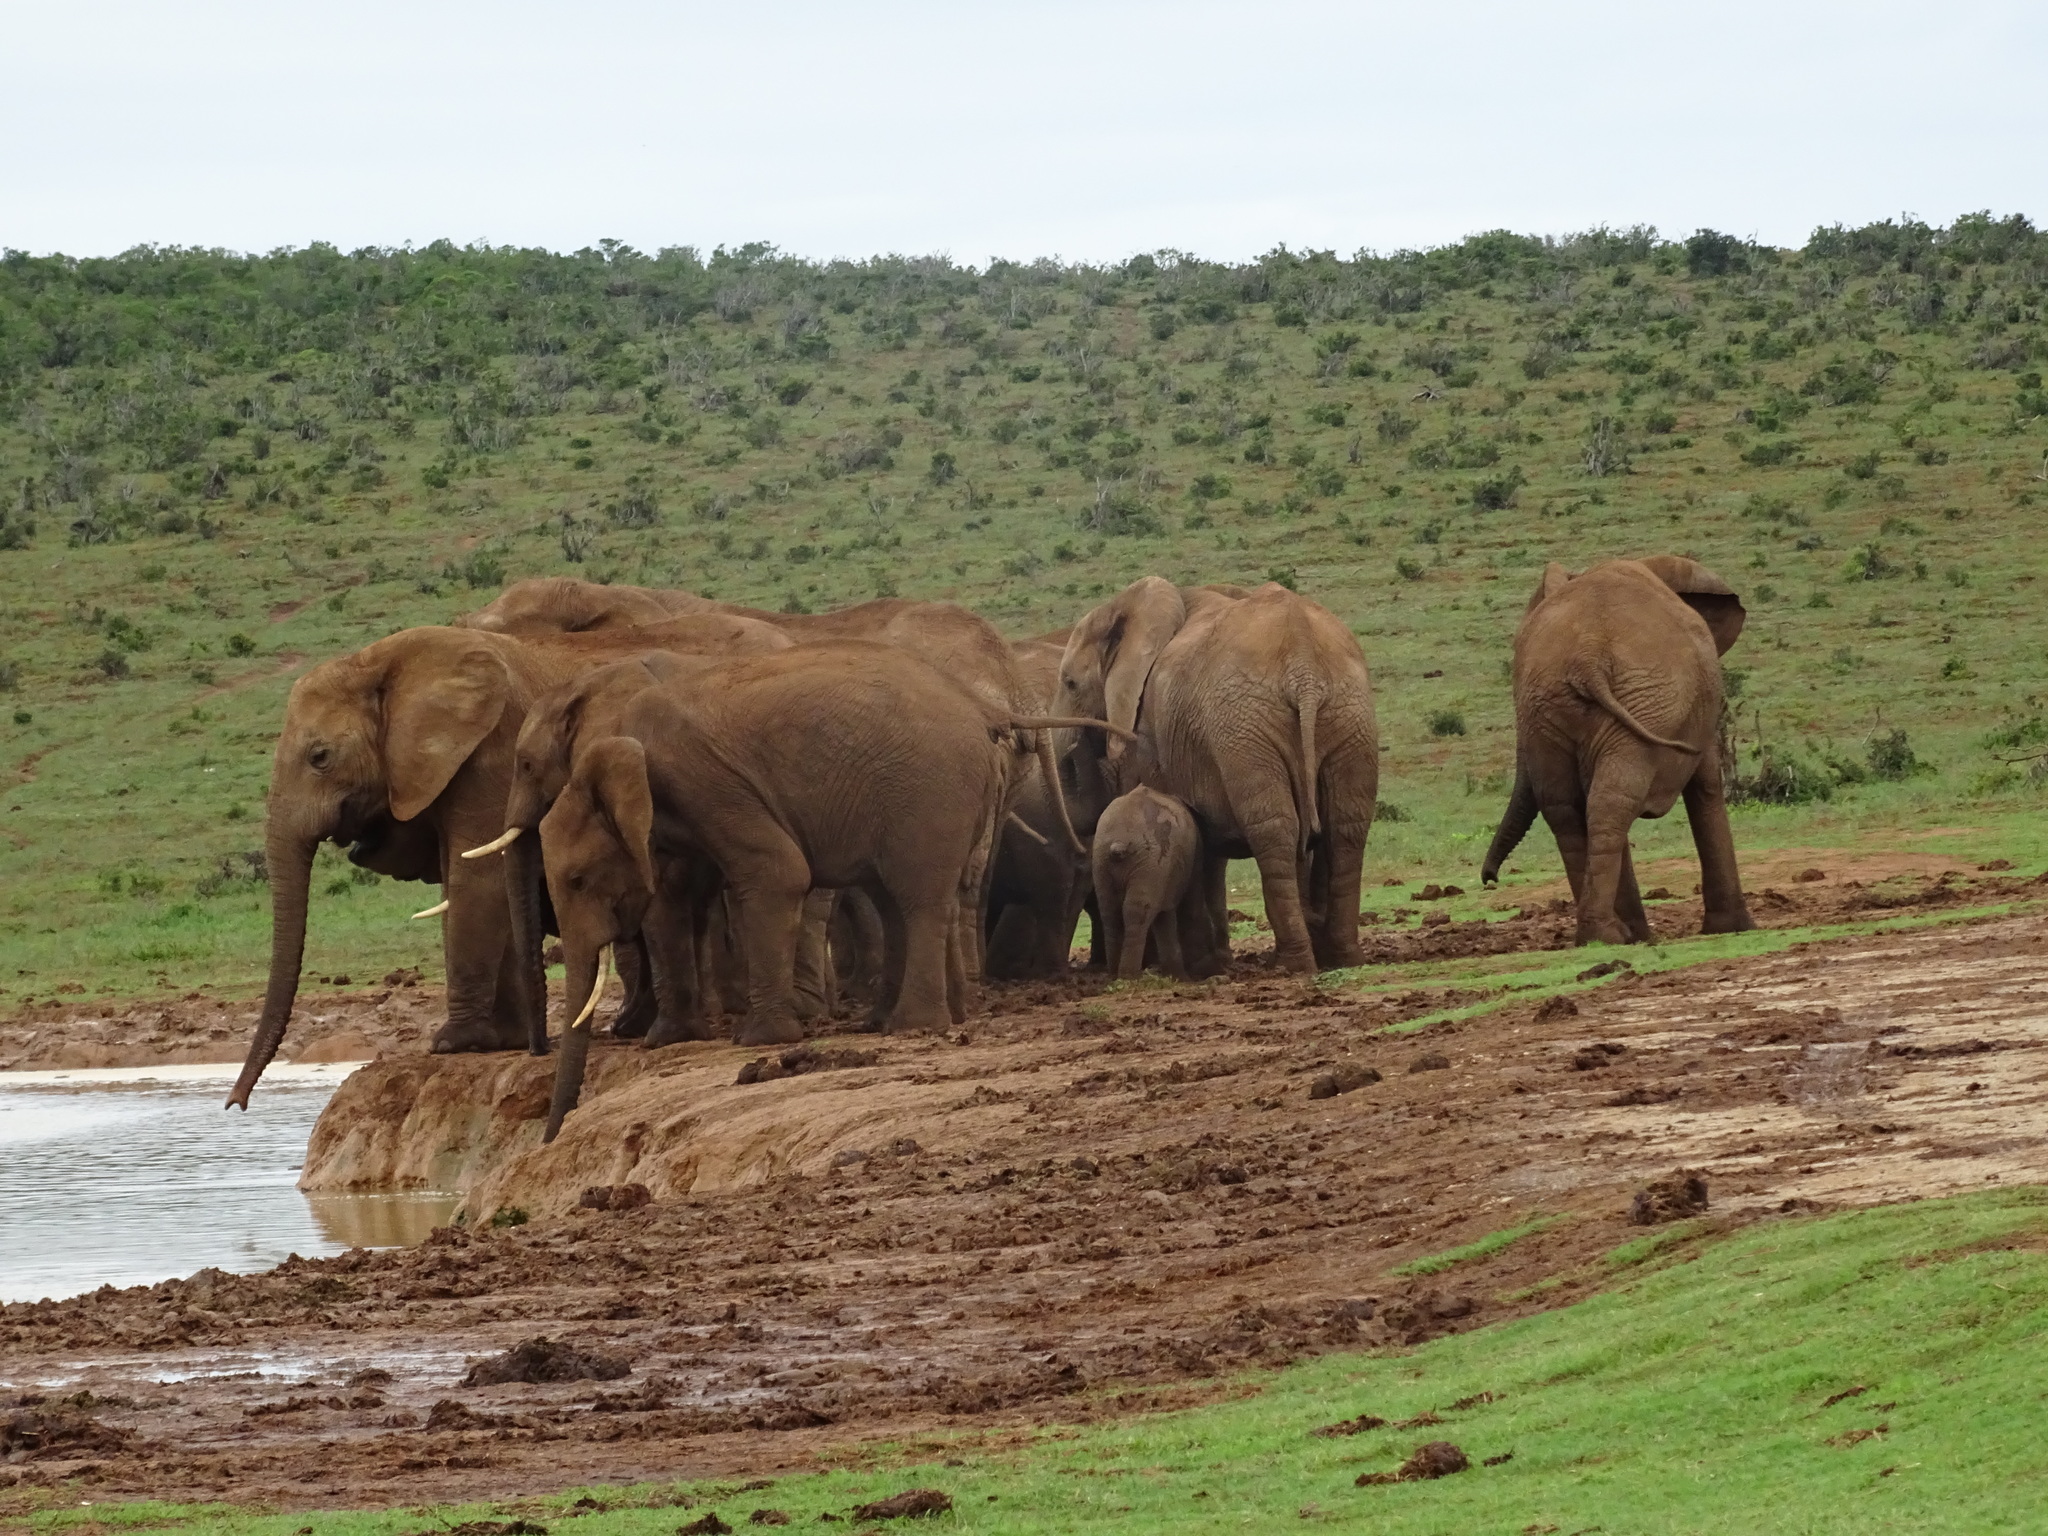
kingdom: Animalia
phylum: Chordata
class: Mammalia
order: Proboscidea
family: Elephantidae
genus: Loxodonta
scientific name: Loxodonta africana
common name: African elephant
